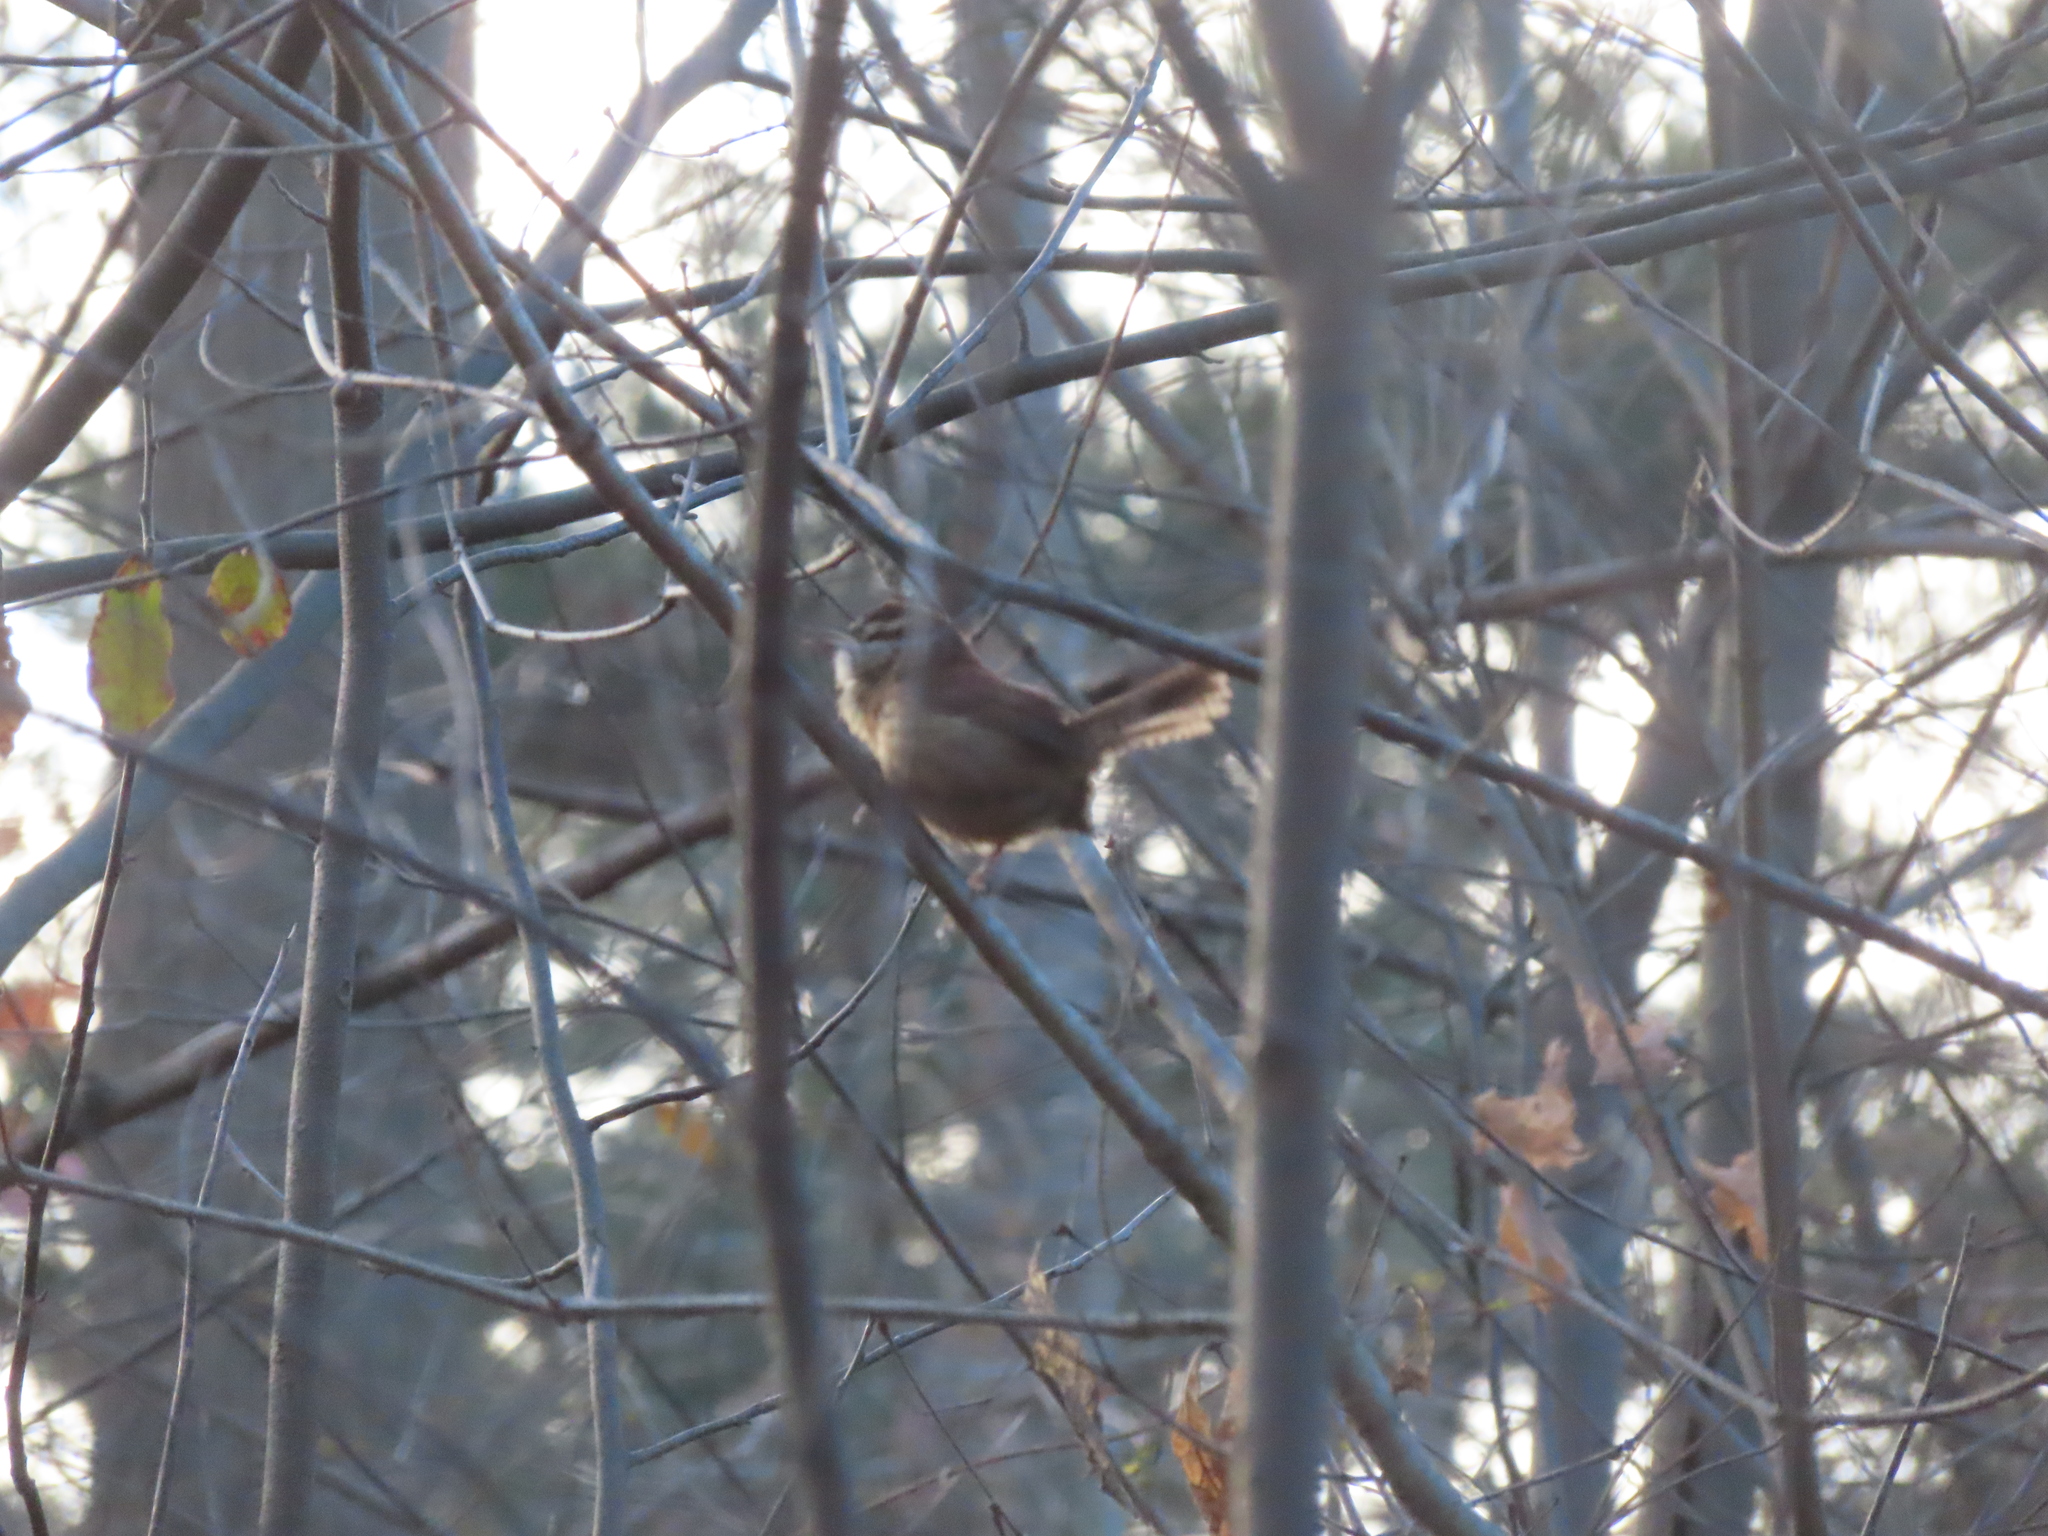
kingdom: Animalia
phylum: Chordata
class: Aves
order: Passeriformes
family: Troglodytidae
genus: Thryothorus
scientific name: Thryothorus ludovicianus
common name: Carolina wren
